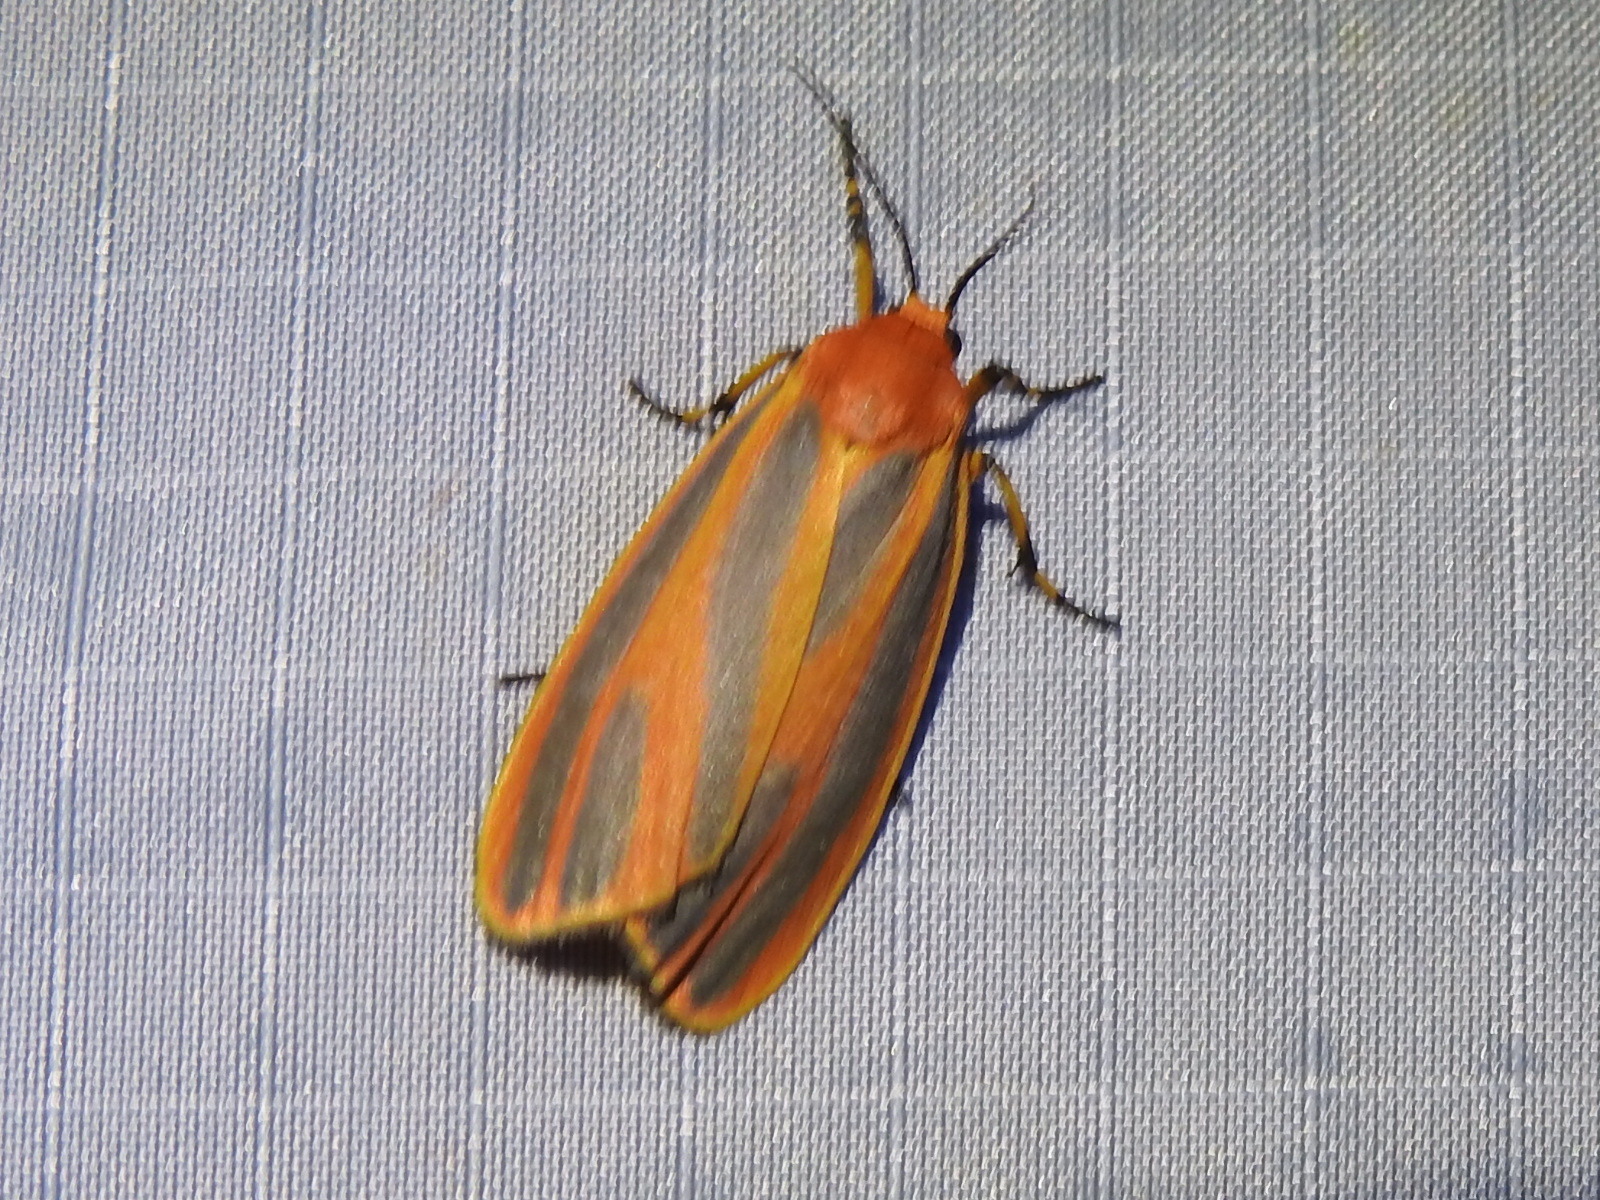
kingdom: Animalia
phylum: Arthropoda
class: Insecta
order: Lepidoptera
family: Erebidae
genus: Hypoprepia
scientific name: Hypoprepia miniata
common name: Scarlet-winged lichen moth
